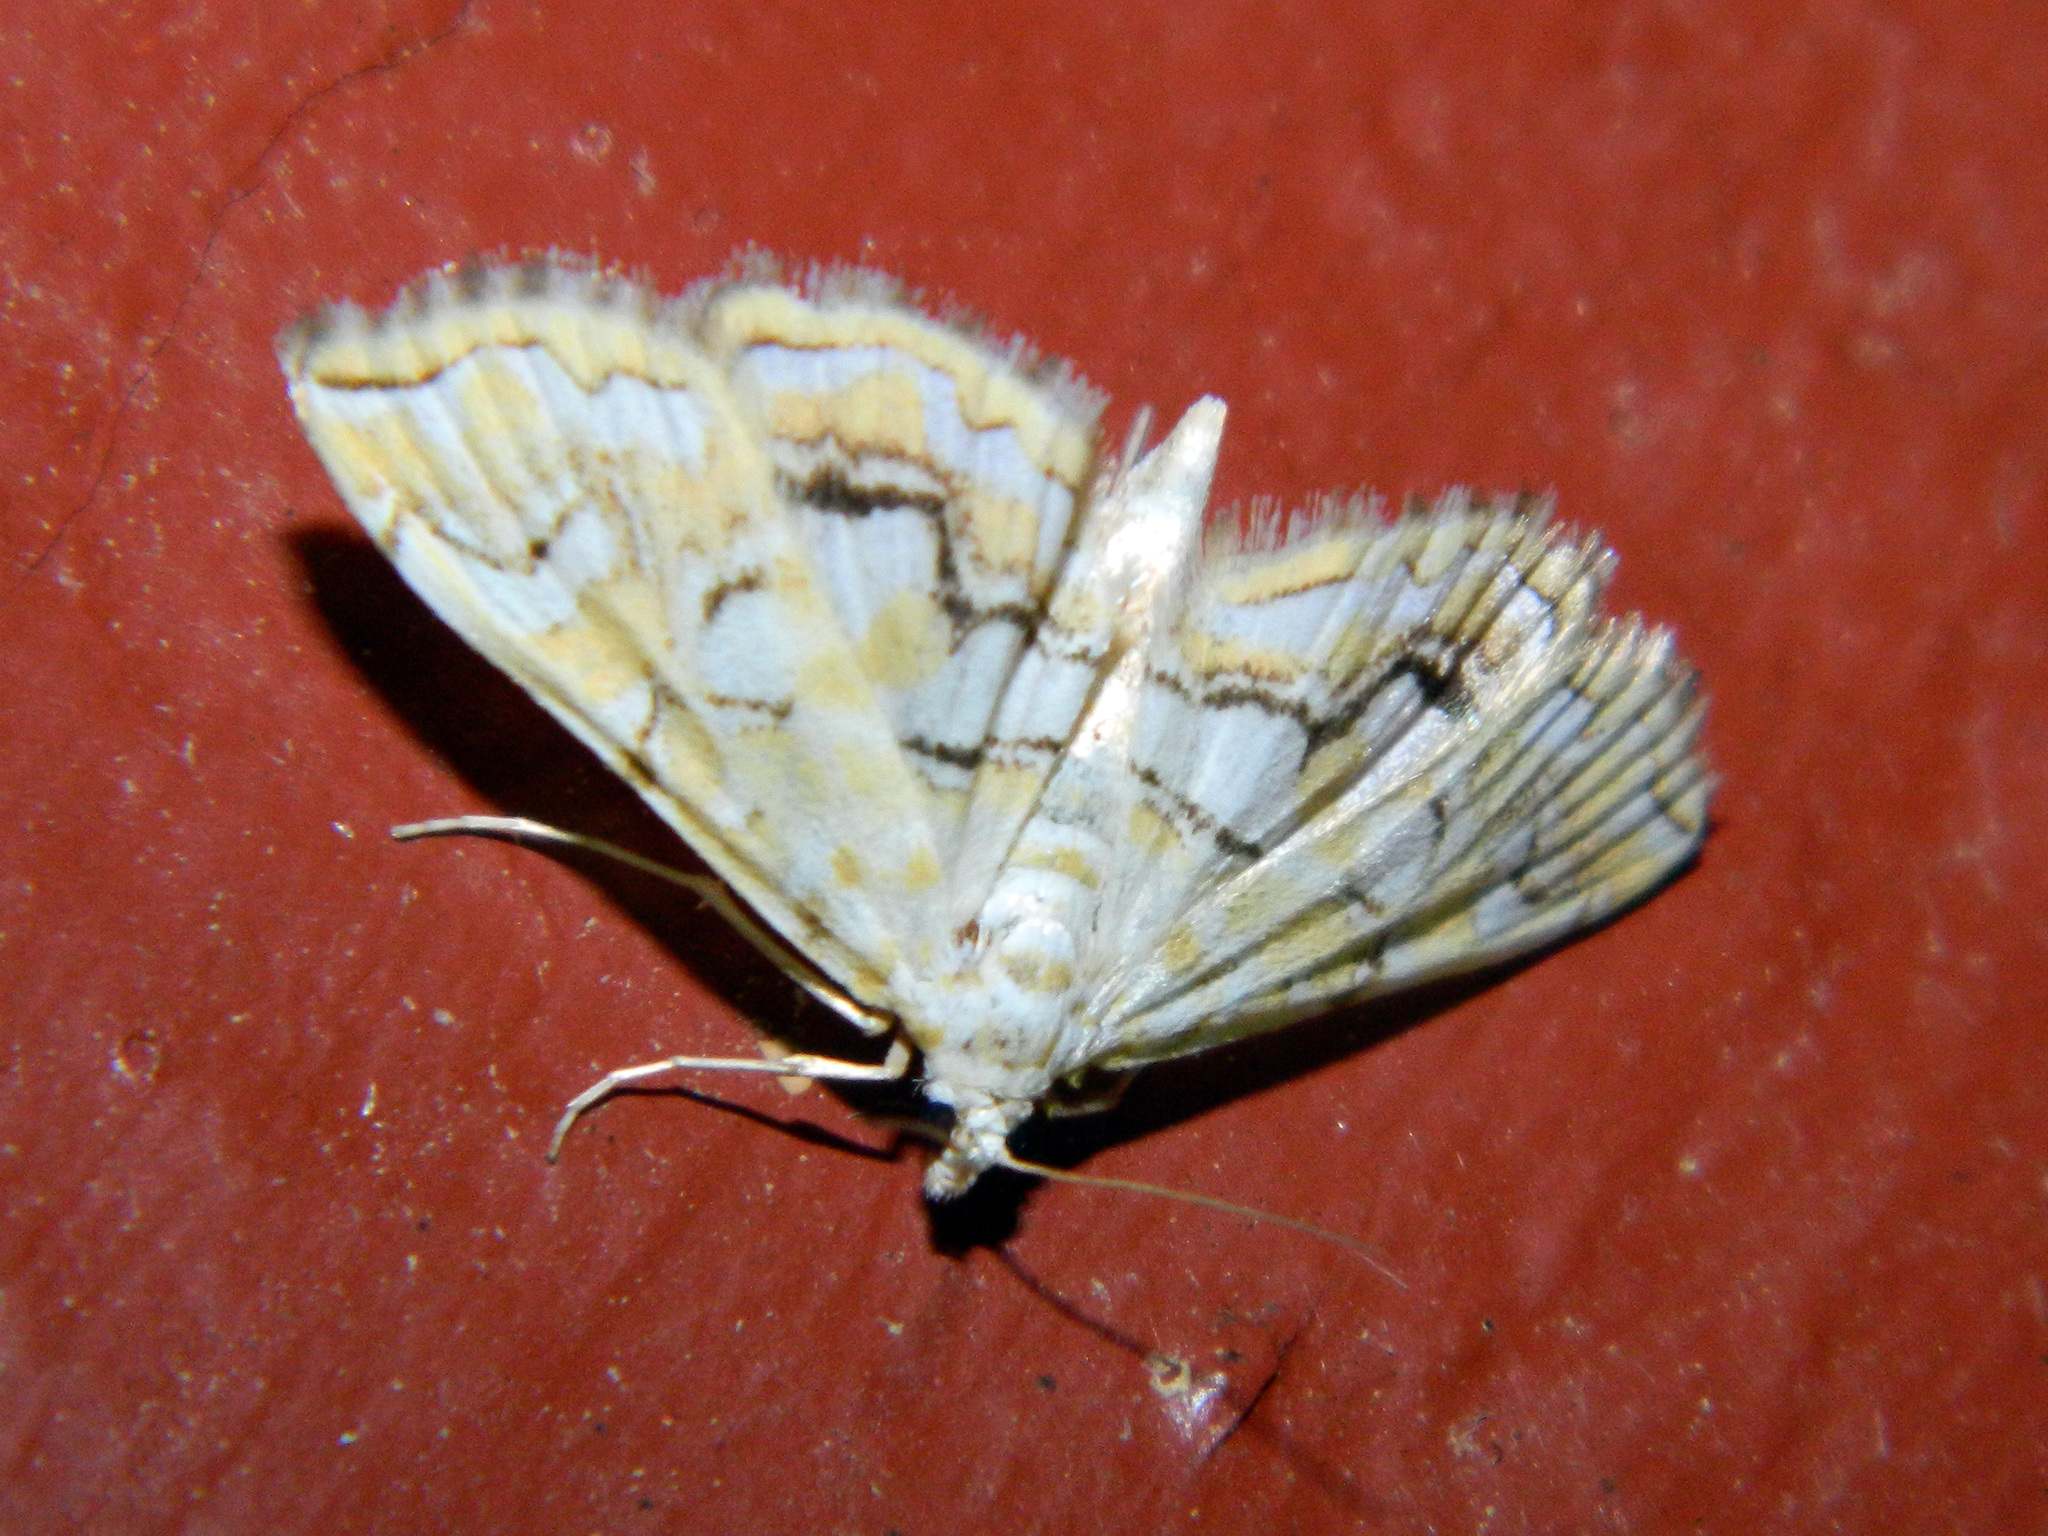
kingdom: Animalia
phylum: Arthropoda
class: Insecta
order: Lepidoptera
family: Crambidae
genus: Elophila
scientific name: Elophila icciusalis
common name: Pondside pyralid moth
